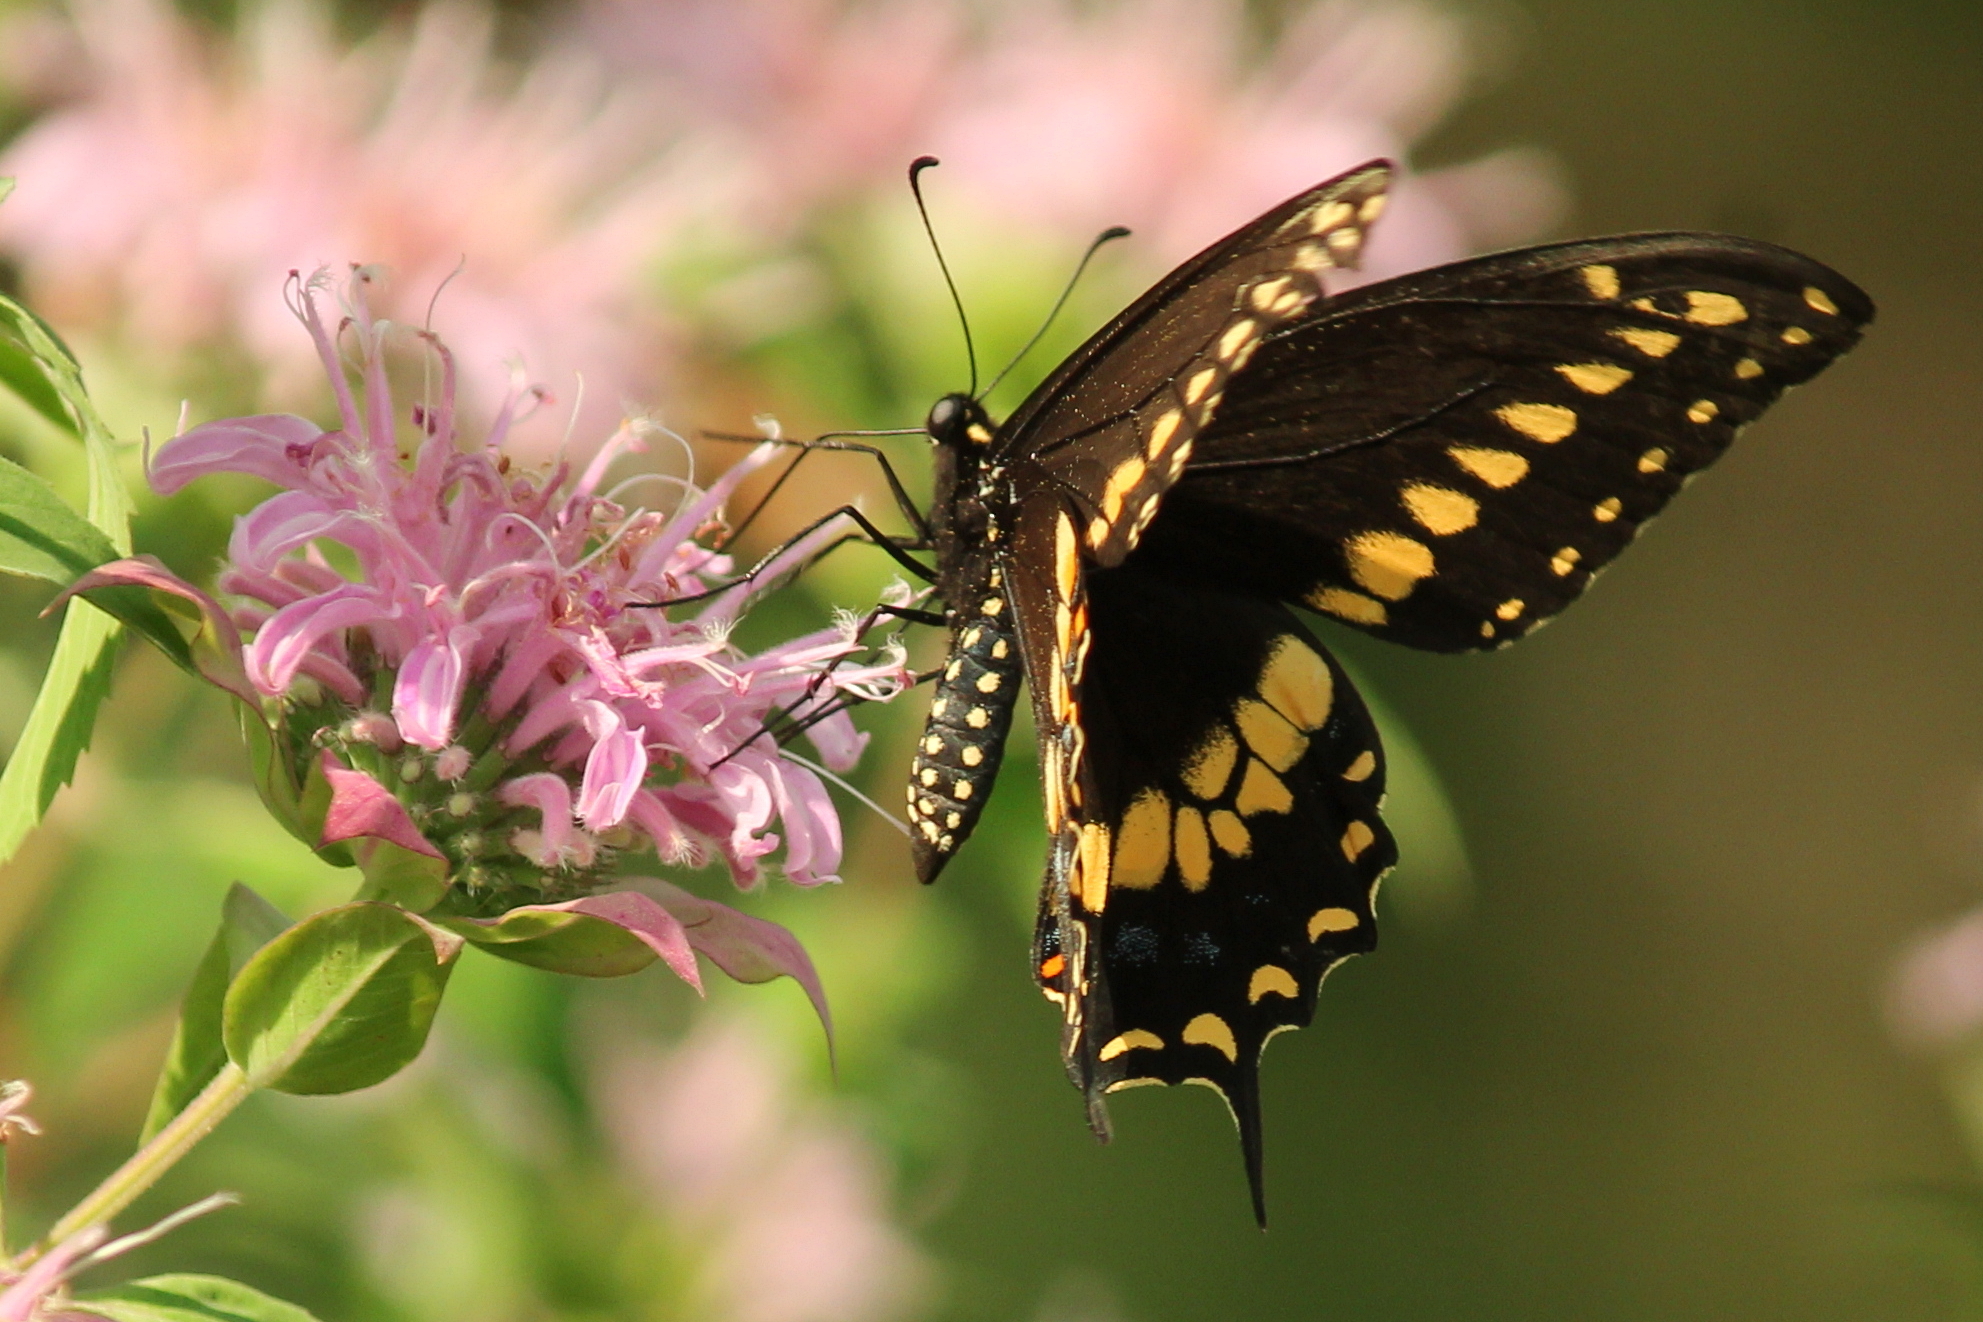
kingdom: Animalia
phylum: Arthropoda
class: Insecta
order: Lepidoptera
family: Papilionidae
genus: Papilio
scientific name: Papilio polyxenes
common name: Black swallowtail
